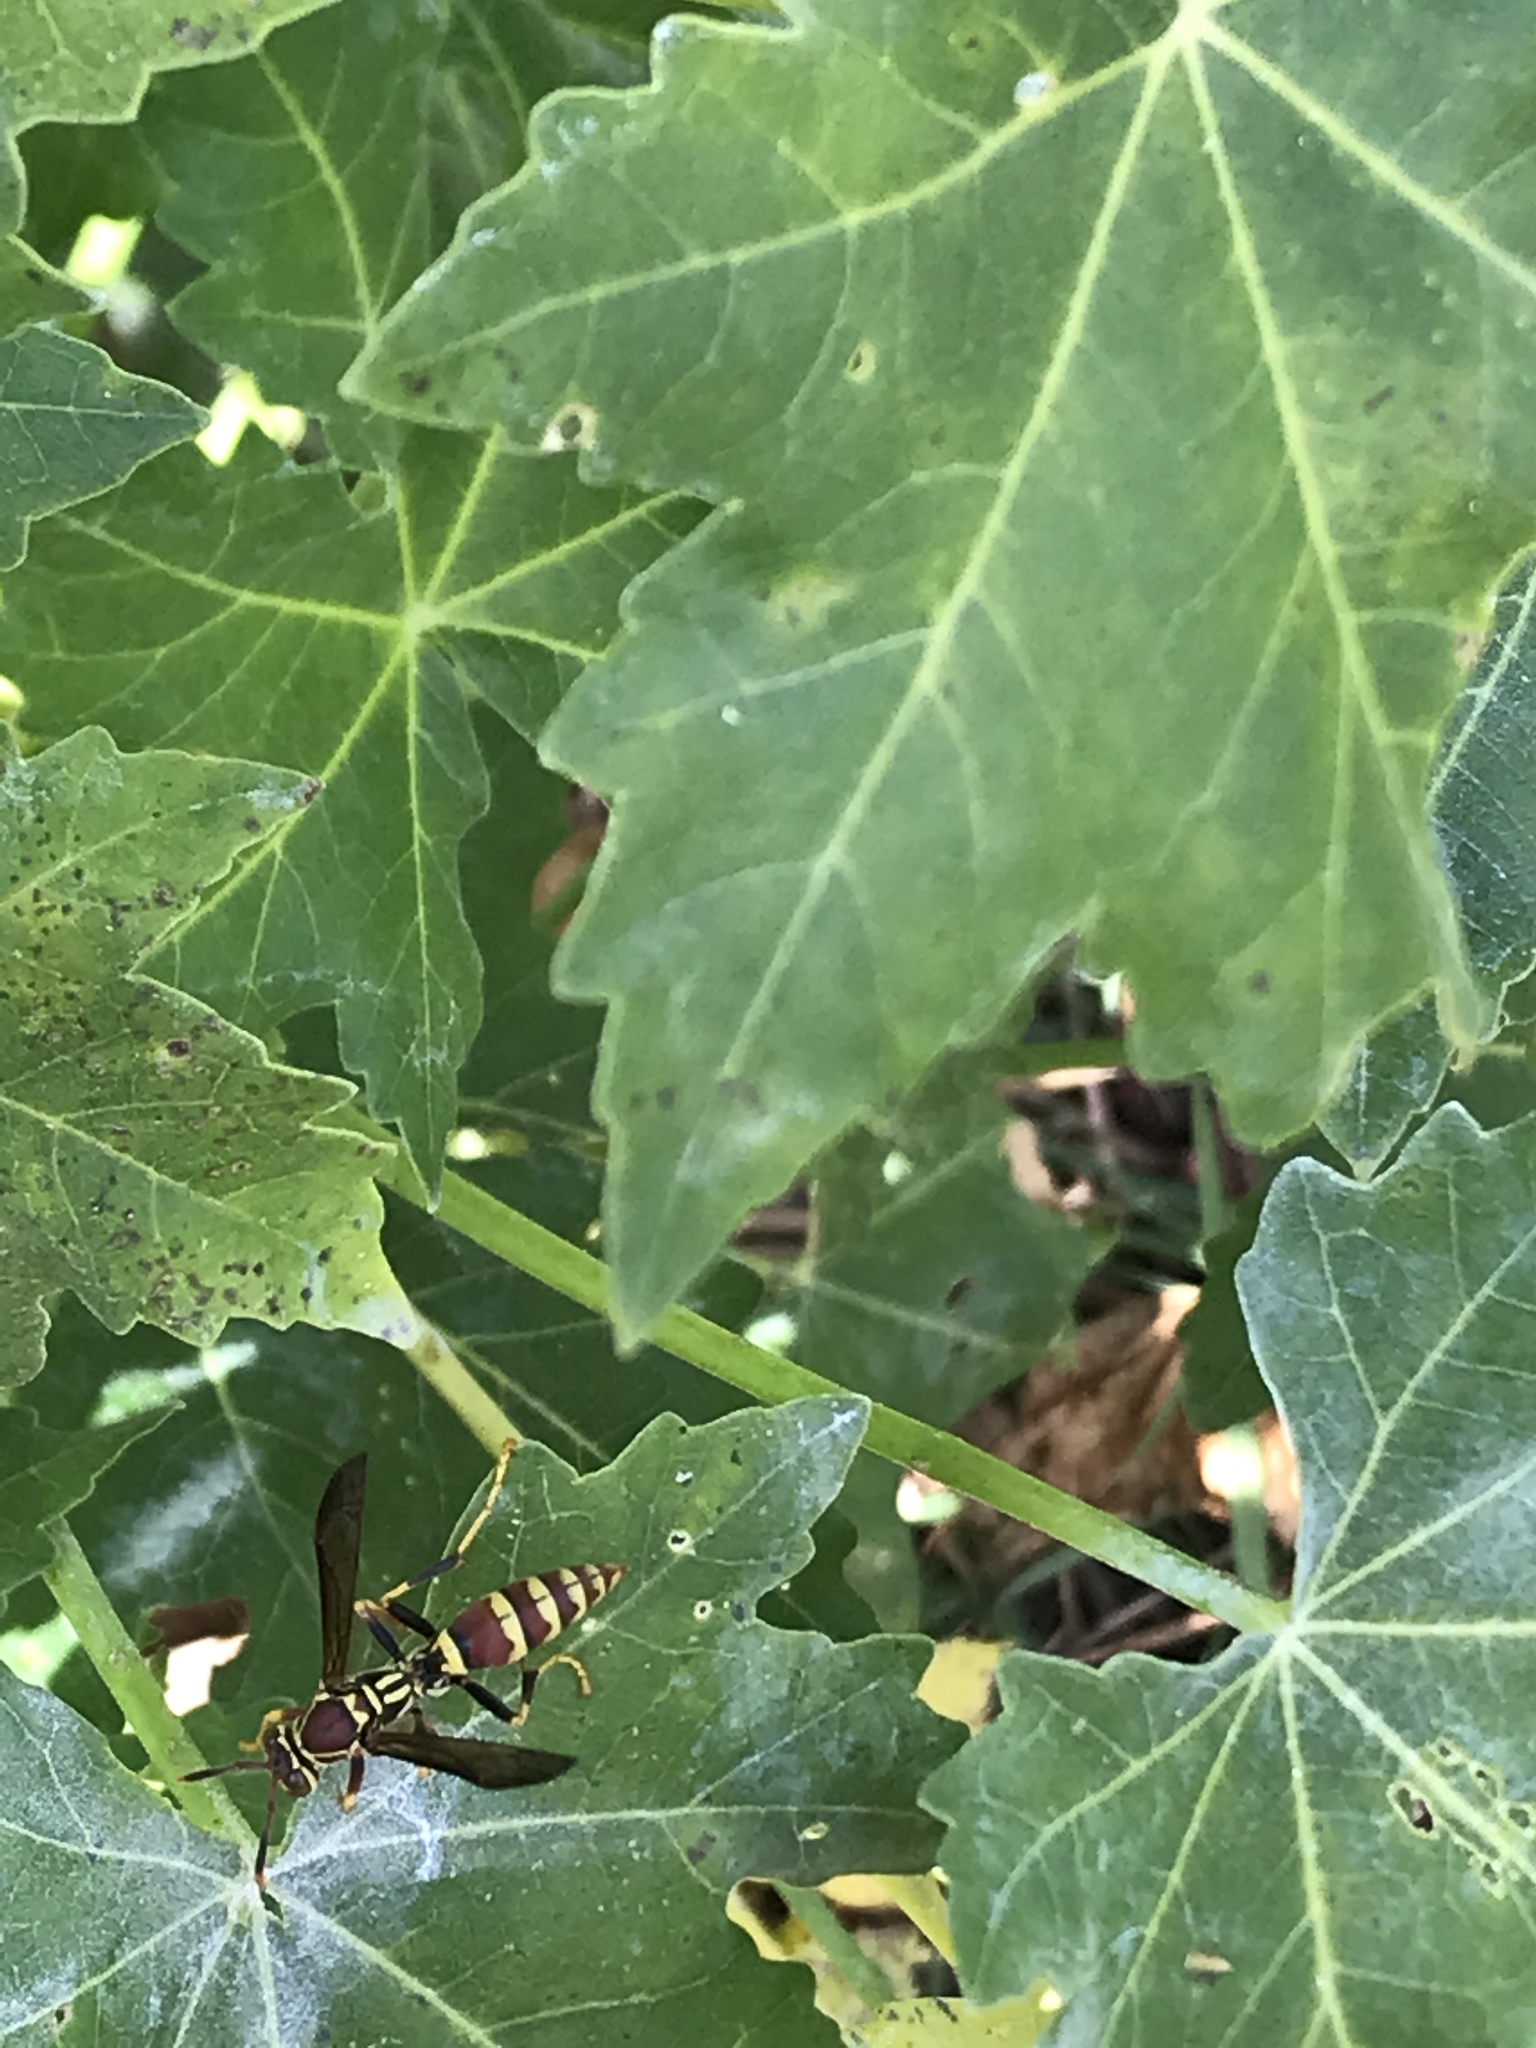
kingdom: Animalia
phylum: Arthropoda
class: Insecta
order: Hymenoptera
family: Eumenidae
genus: Polistes
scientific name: Polistes exclamans
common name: Paper wasp
